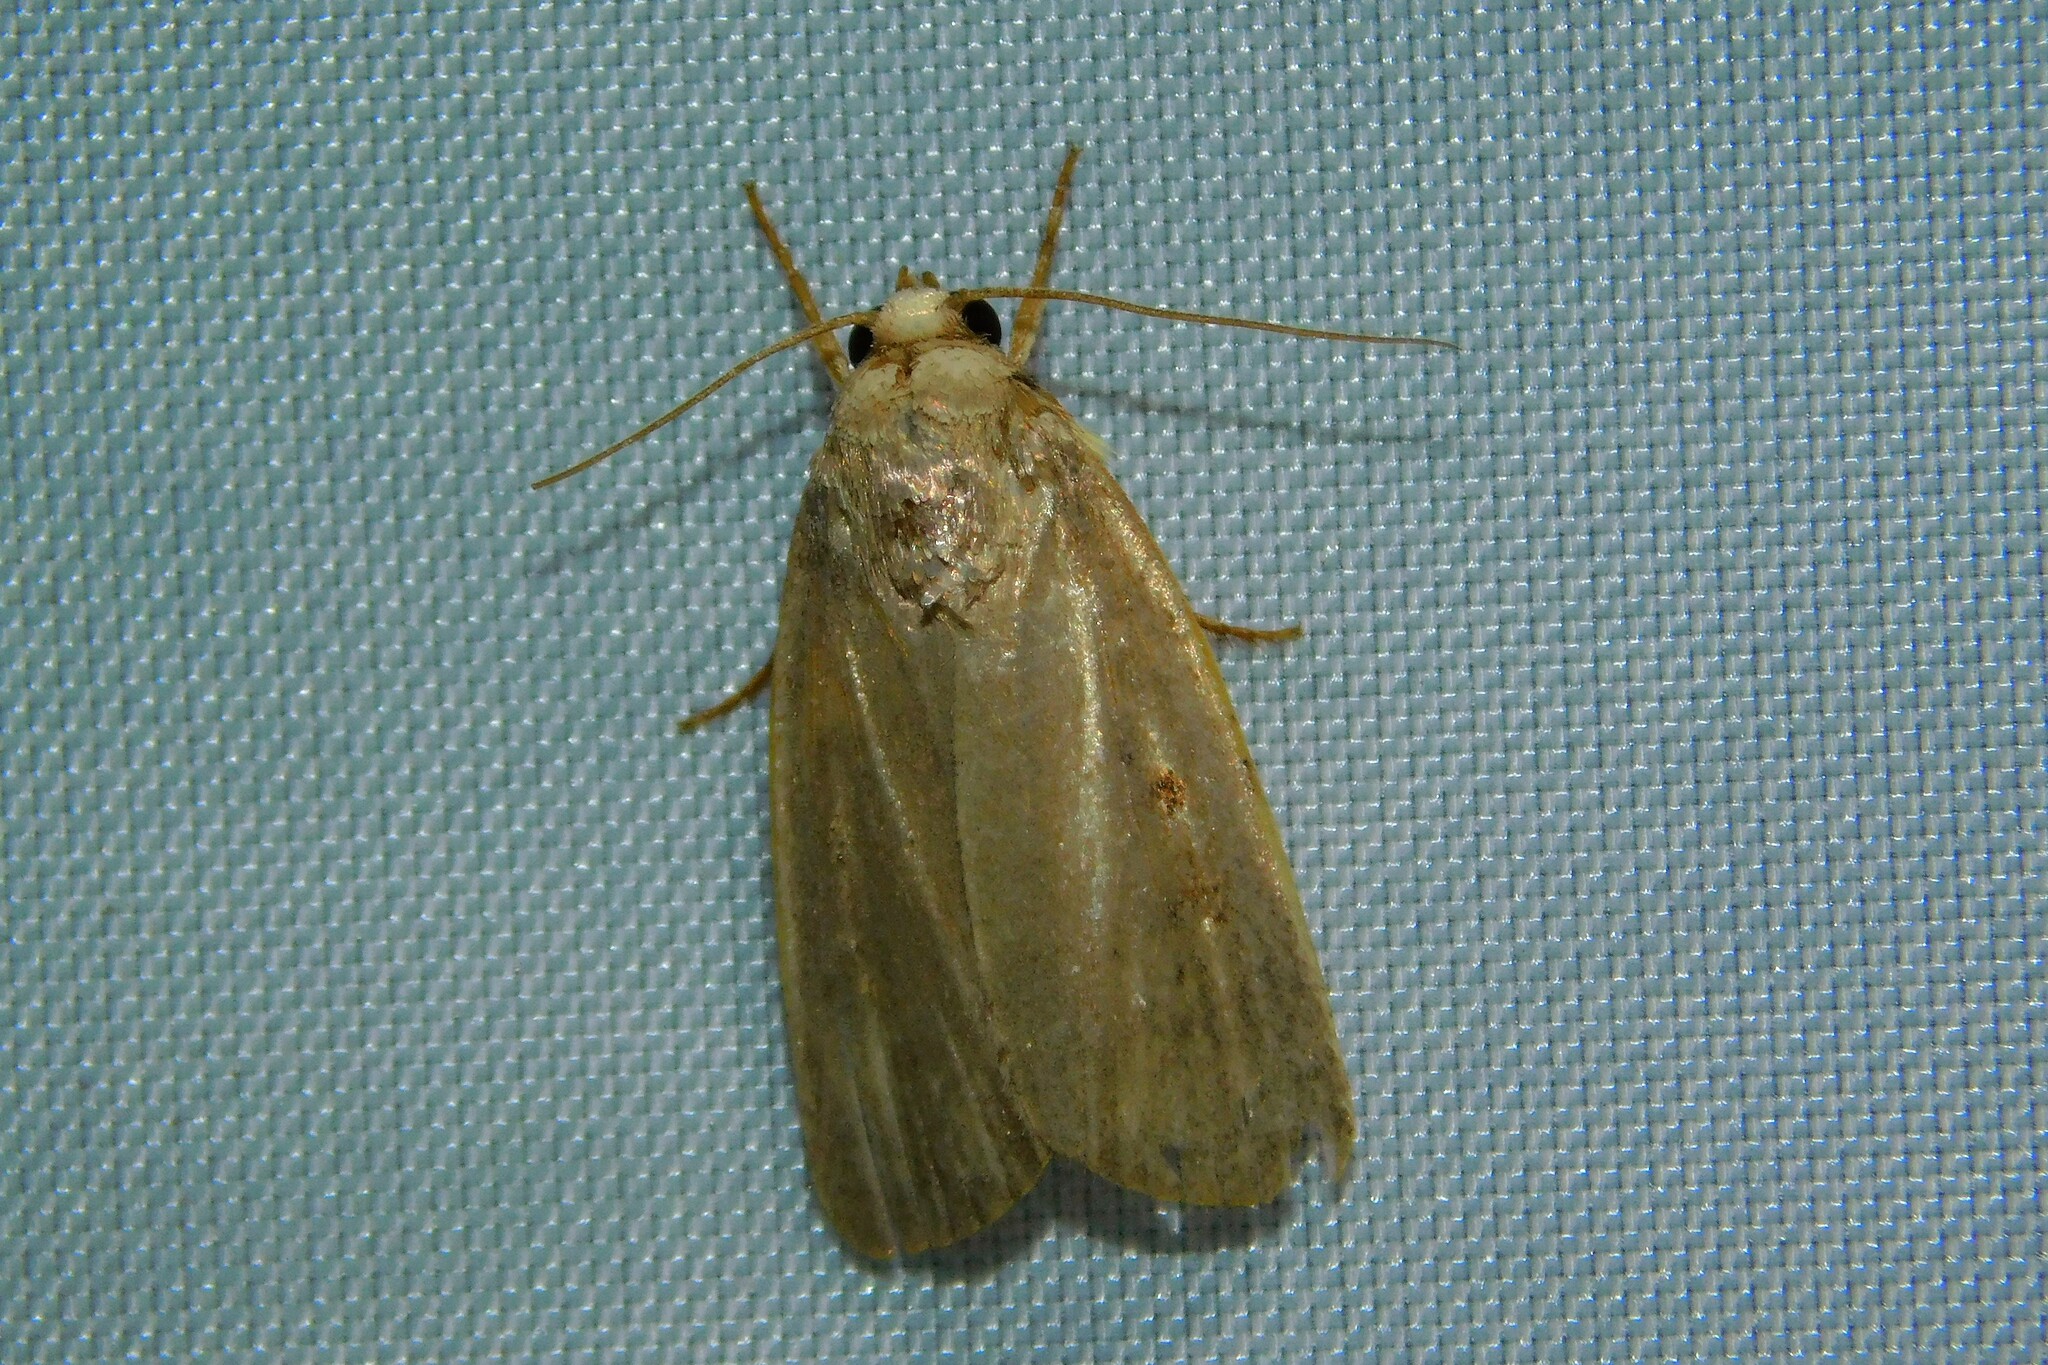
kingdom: Animalia
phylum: Arthropoda
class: Insecta
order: Lepidoptera
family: Noctuidae
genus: Athetis
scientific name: Athetis hospes
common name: Porter's rustic
